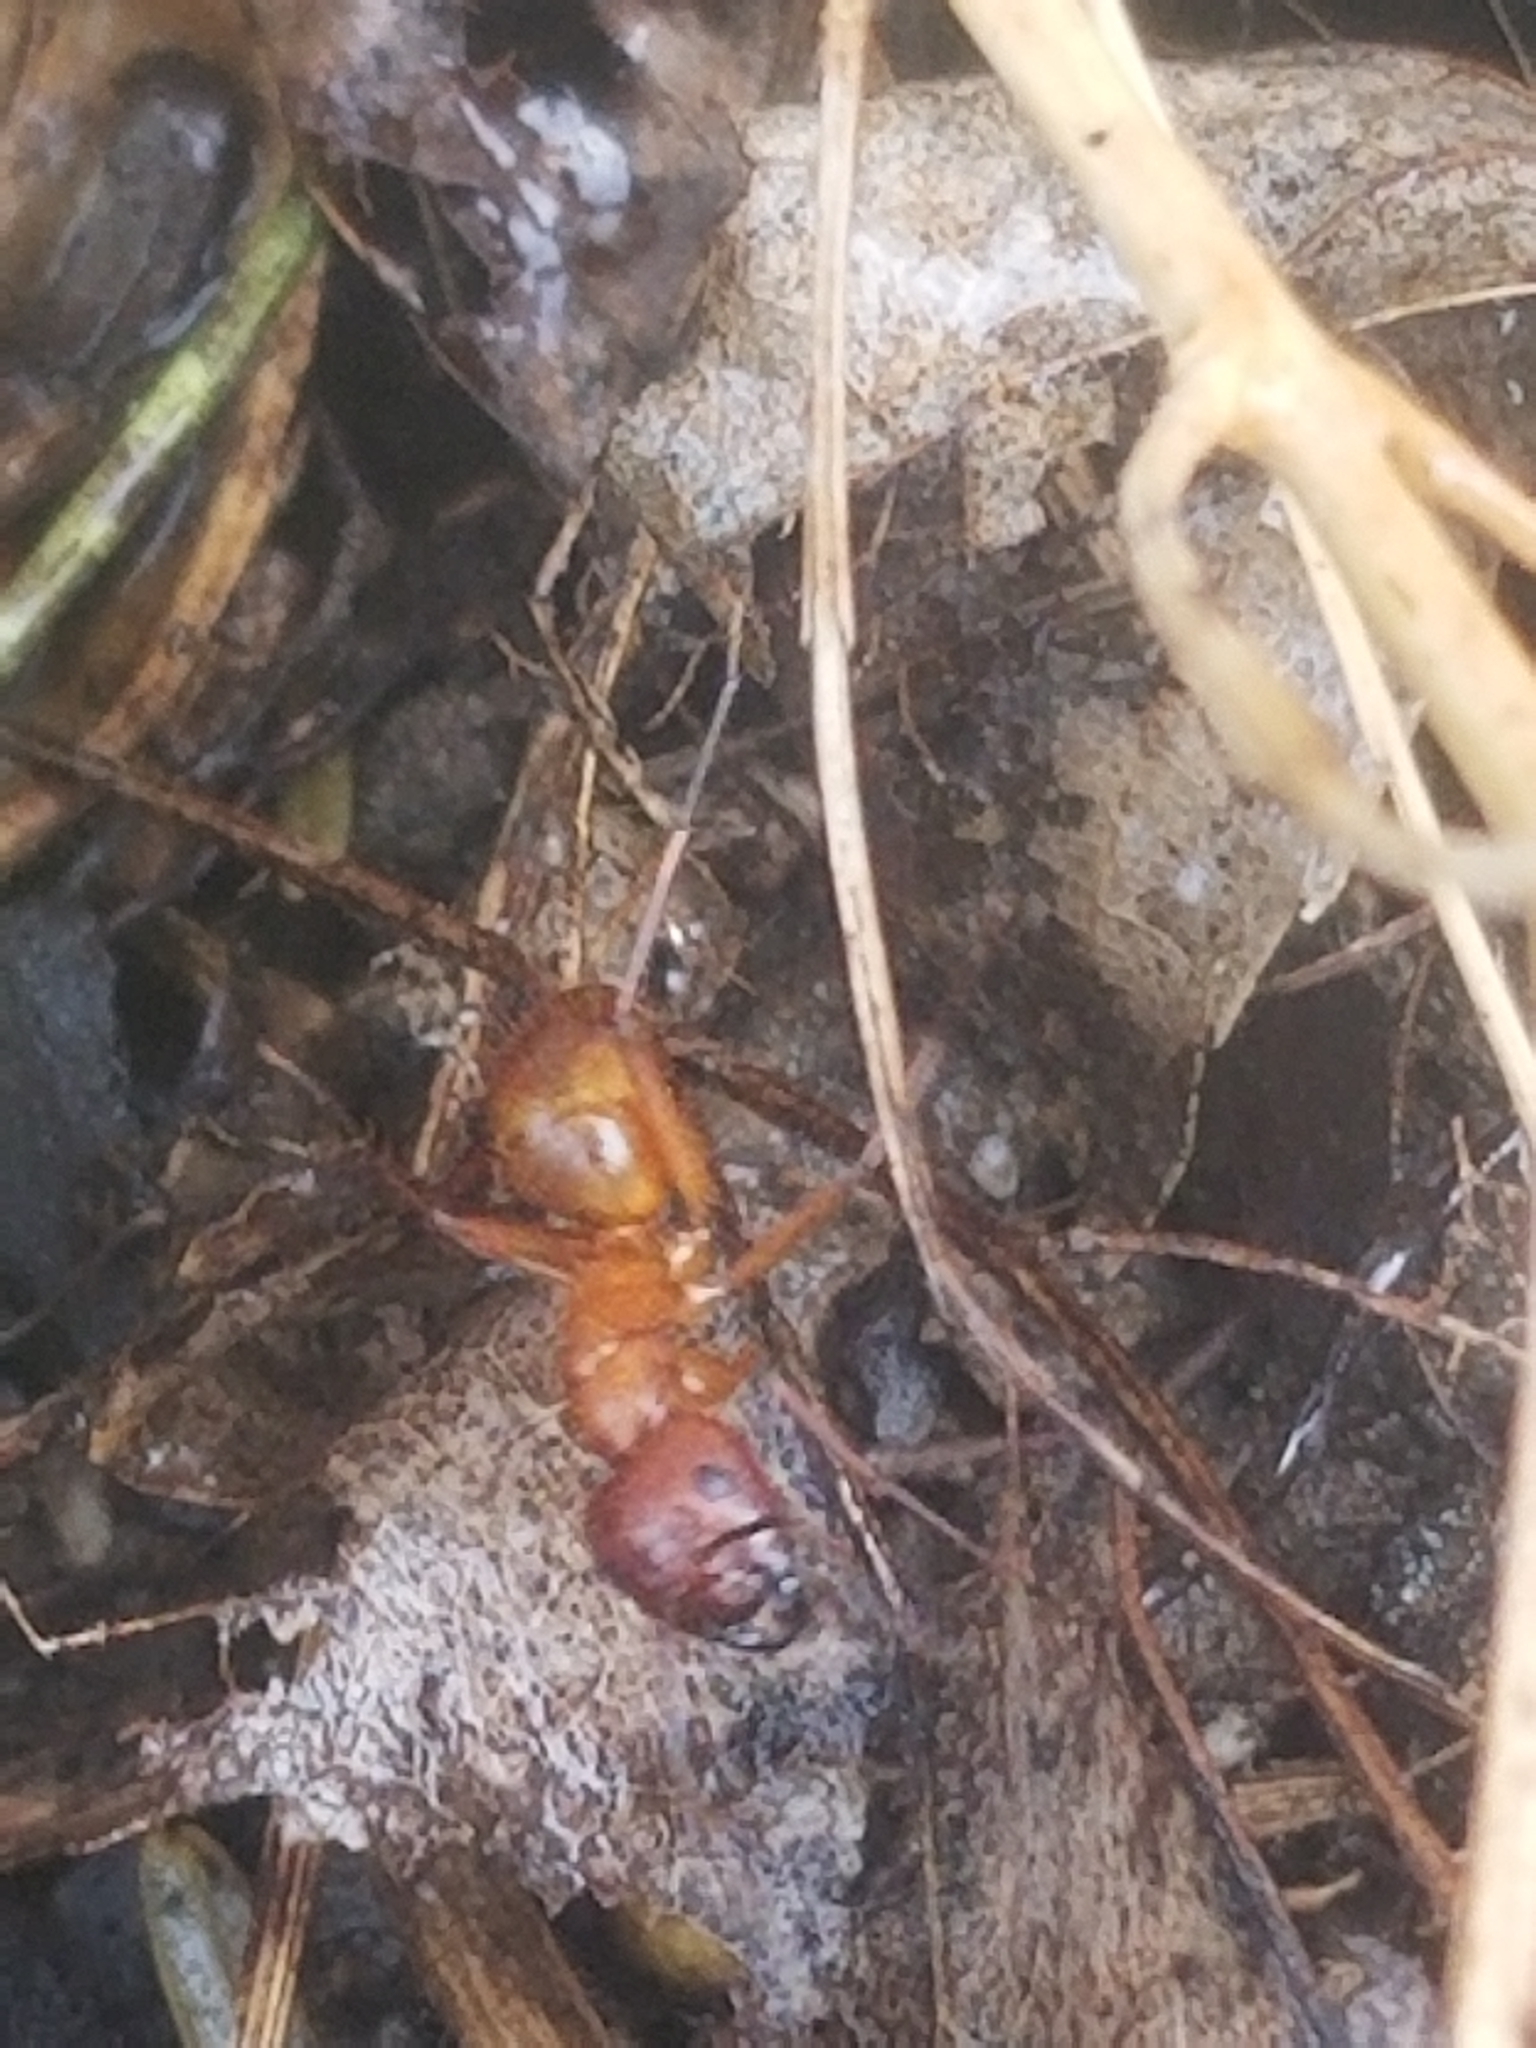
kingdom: Animalia
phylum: Arthropoda
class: Insecta
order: Hymenoptera
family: Formicidae
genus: Camponotus
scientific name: Camponotus castaneus
